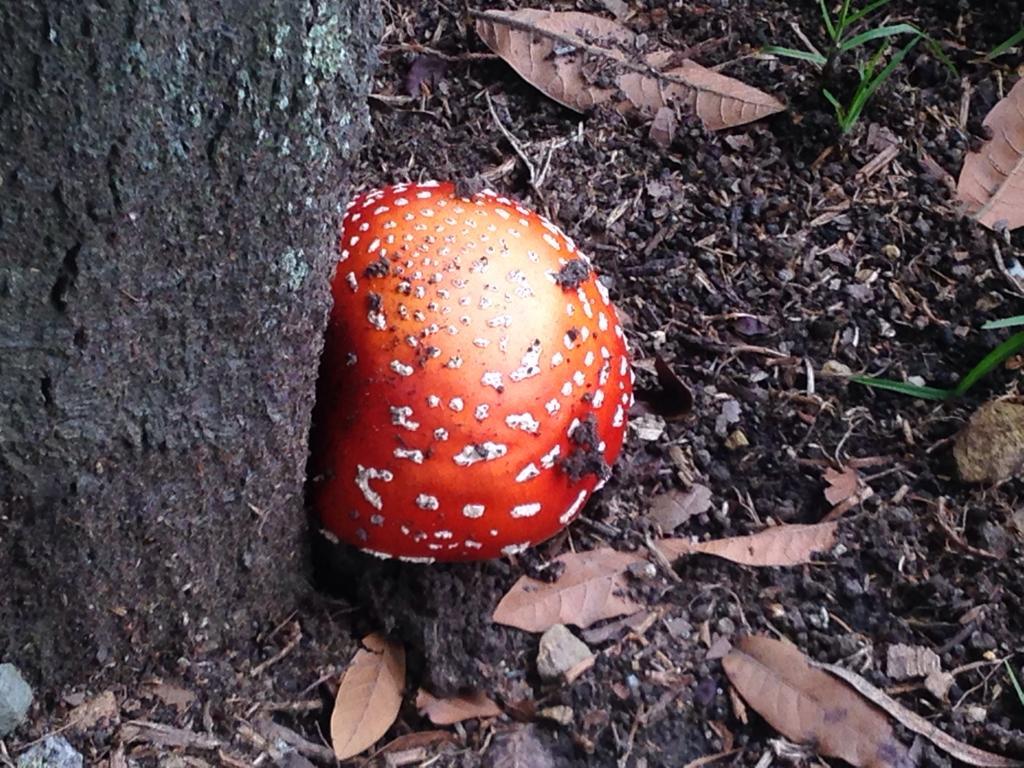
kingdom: Fungi
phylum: Basidiomycota
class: Agaricomycetes
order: Agaricales
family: Amanitaceae
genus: Amanita
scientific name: Amanita muscaria
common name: Fly agaric
